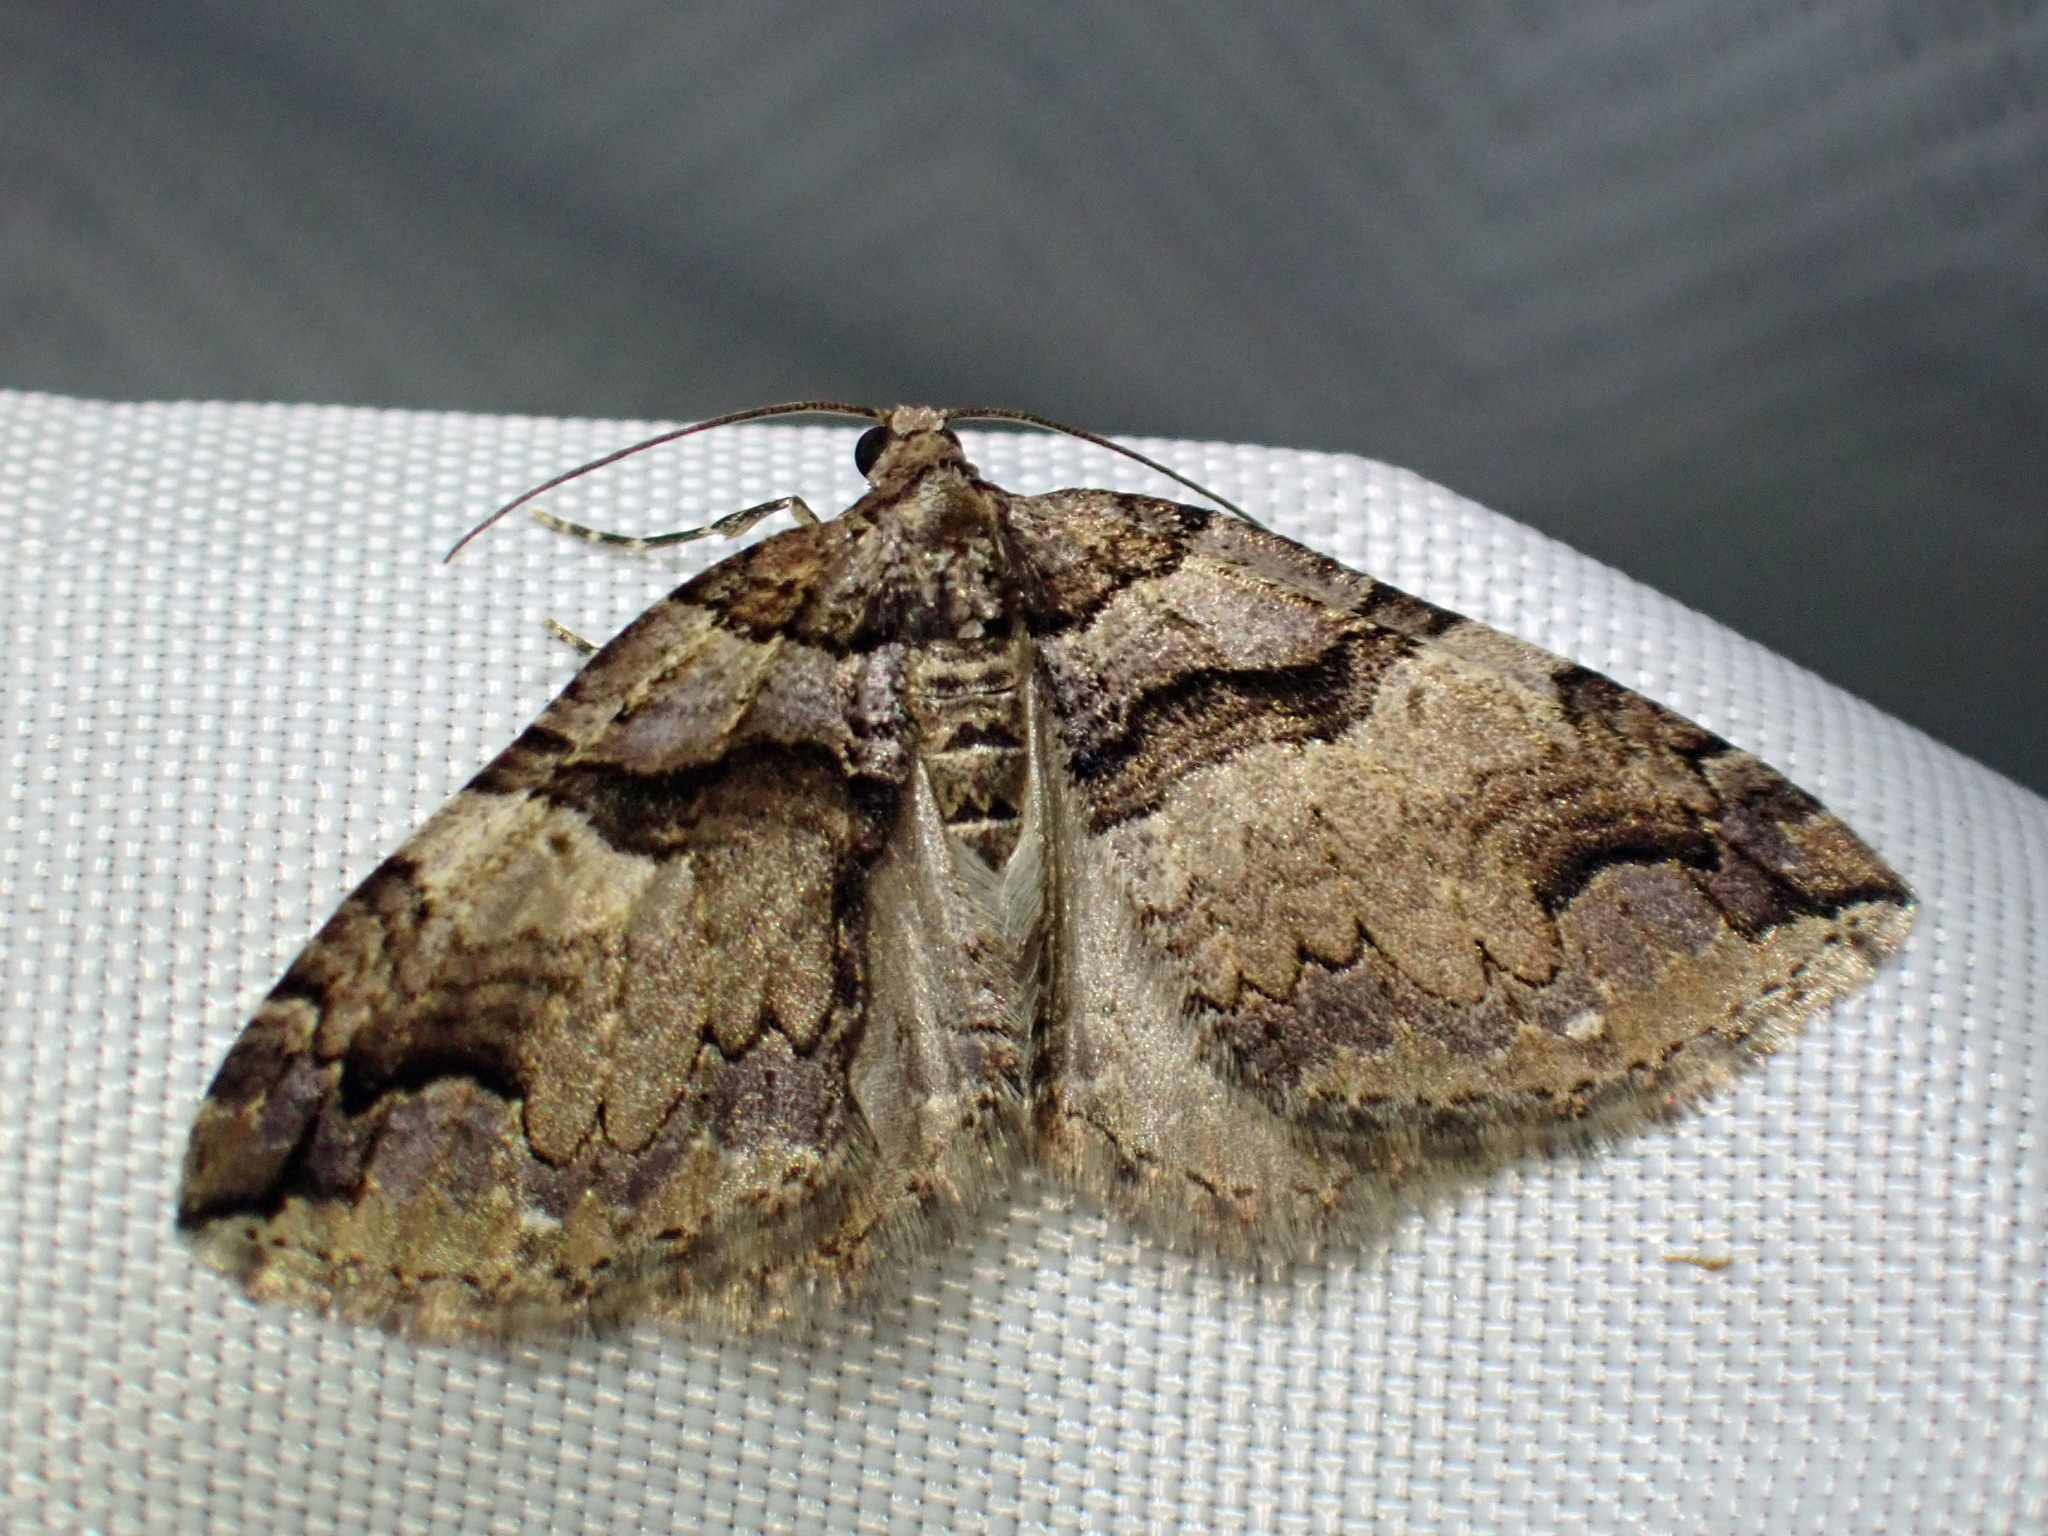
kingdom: Animalia
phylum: Arthropoda
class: Insecta
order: Lepidoptera
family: Geometridae
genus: Anticlea
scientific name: Anticlea vasiliata
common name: Variable carpet
